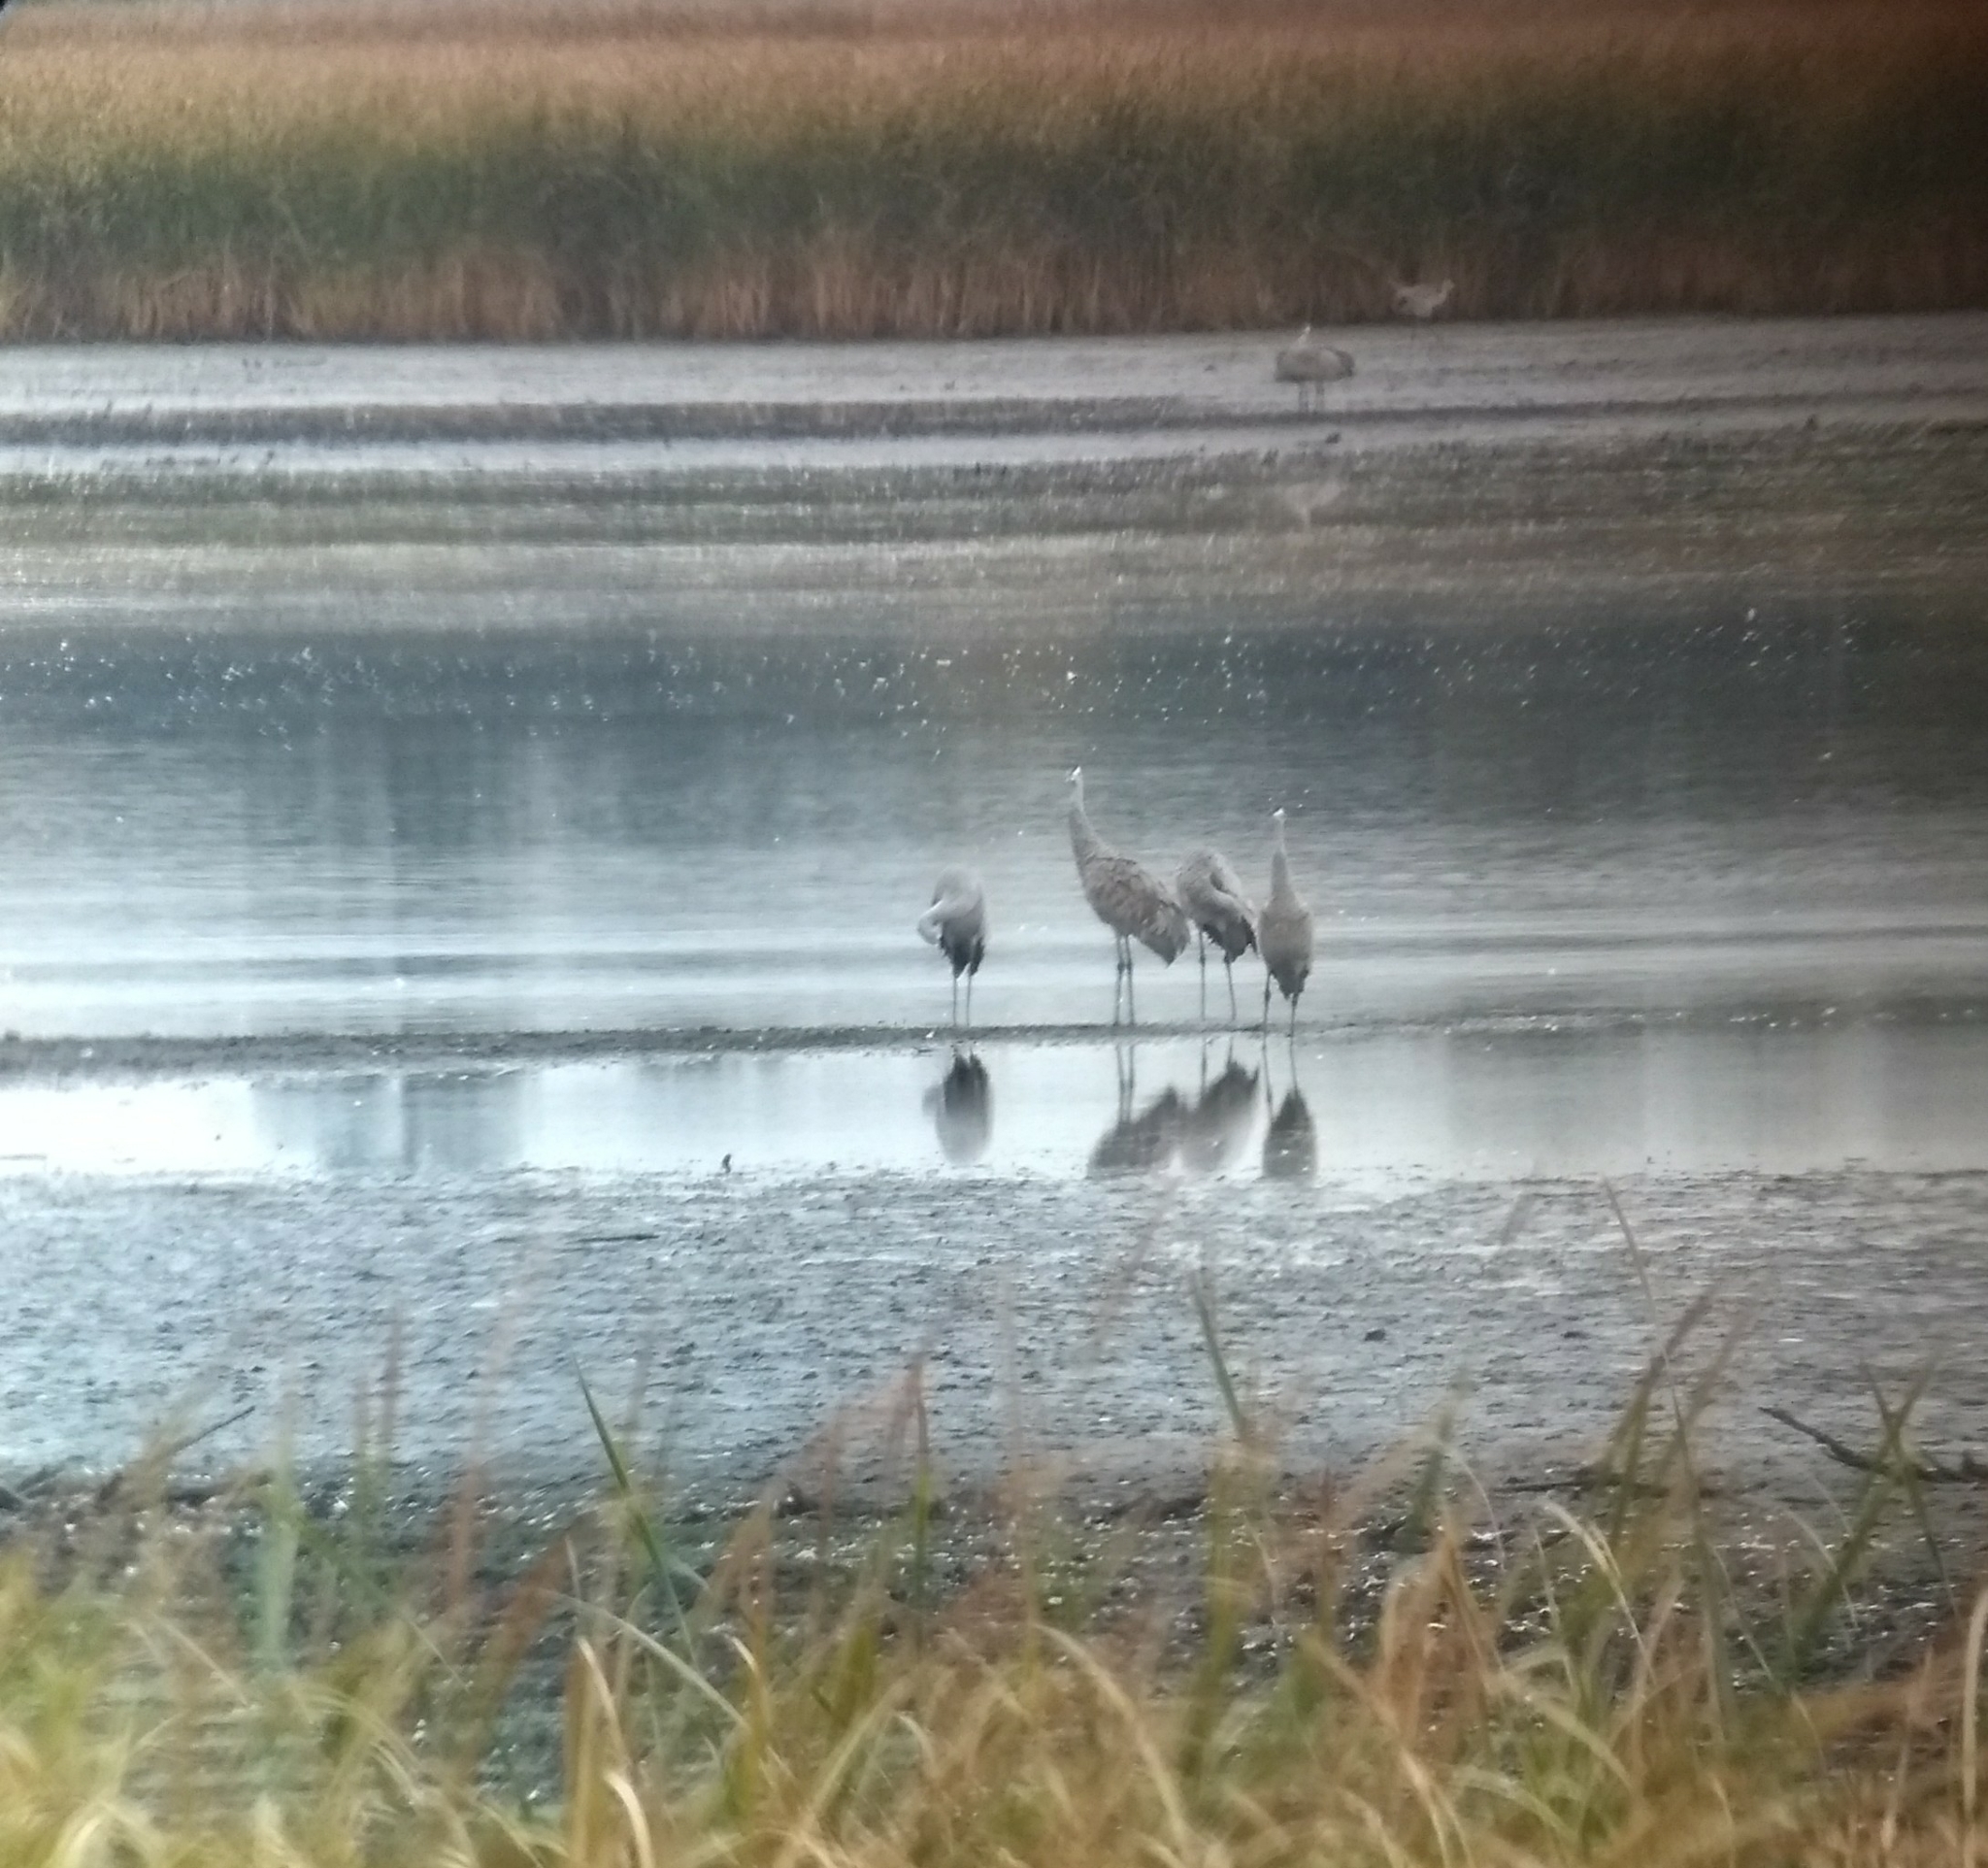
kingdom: Animalia
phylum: Chordata
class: Aves
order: Gruiformes
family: Gruidae
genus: Grus
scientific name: Grus canadensis
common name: Sandhill crane
